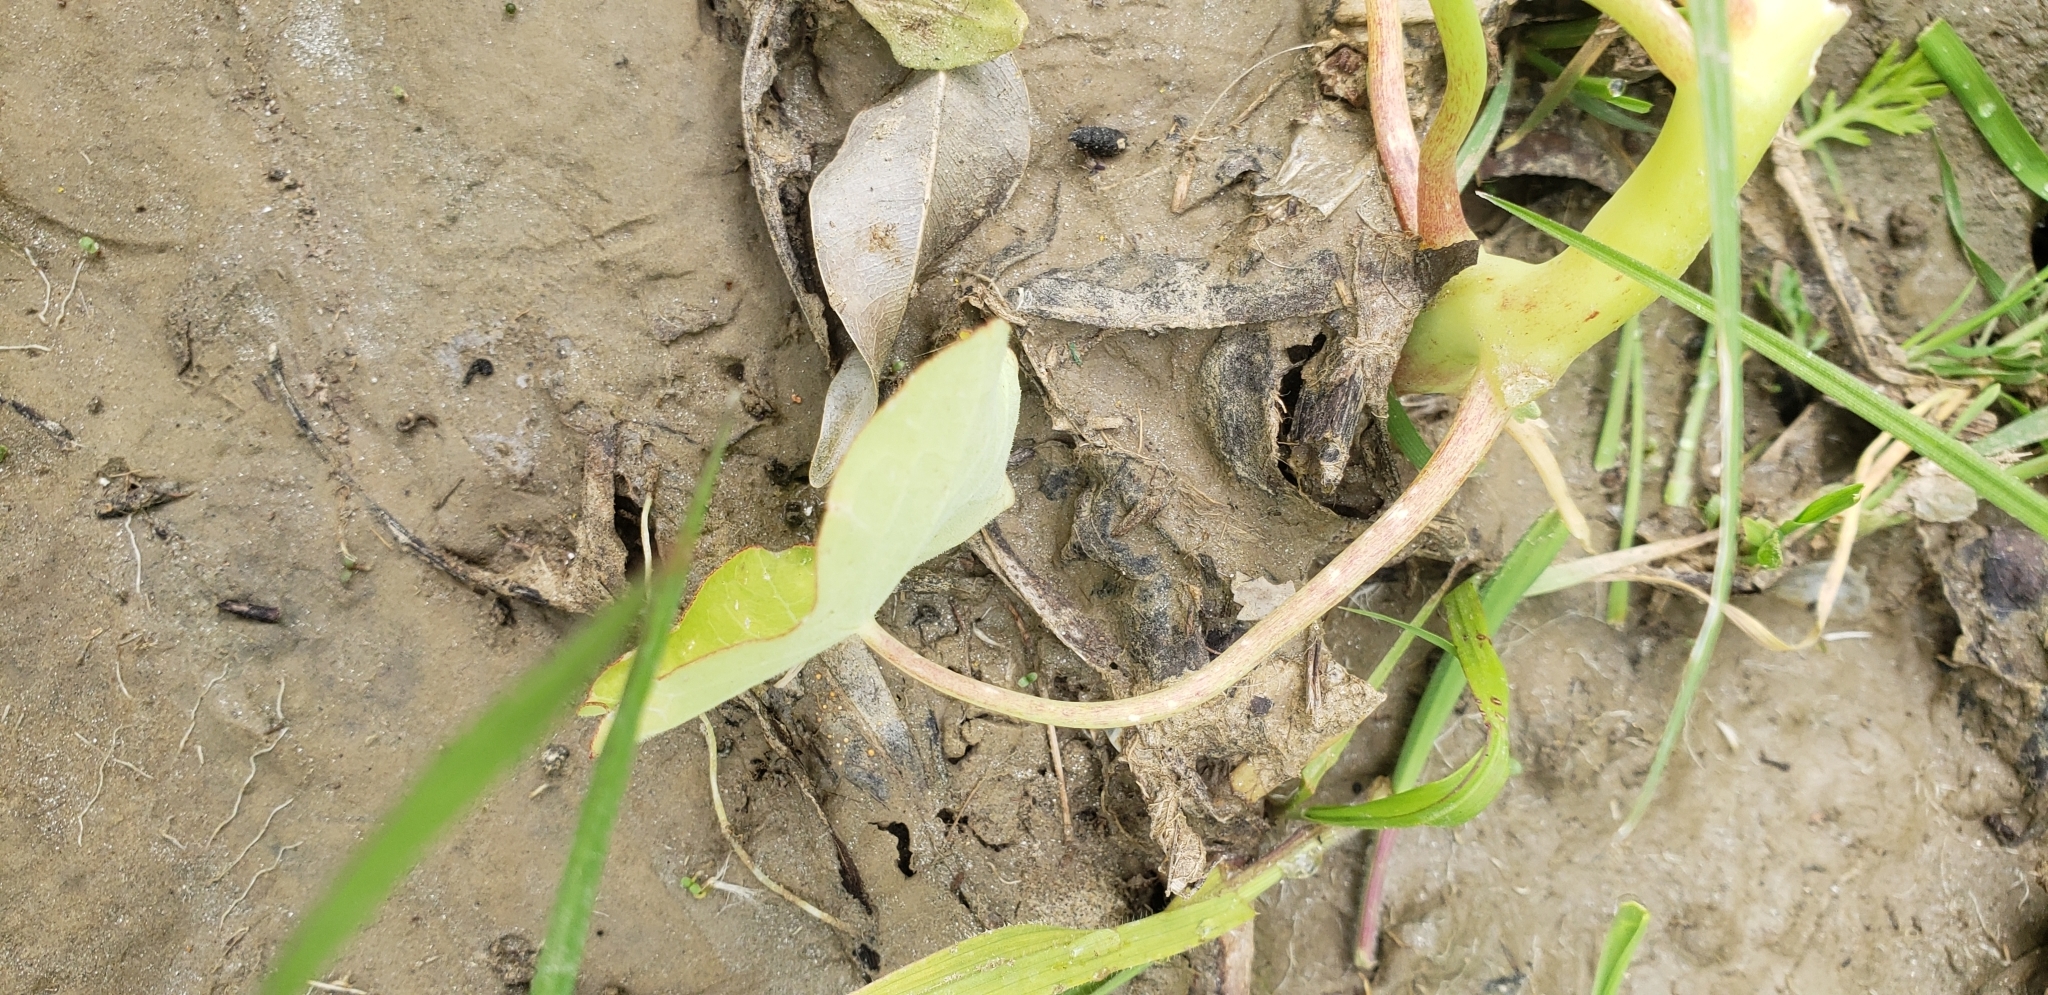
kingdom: Plantae
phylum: Tracheophyta
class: Magnoliopsida
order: Brassicales
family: Tropaeolaceae
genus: Tropaeolum
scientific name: Tropaeolum majus
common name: Nasturtium
